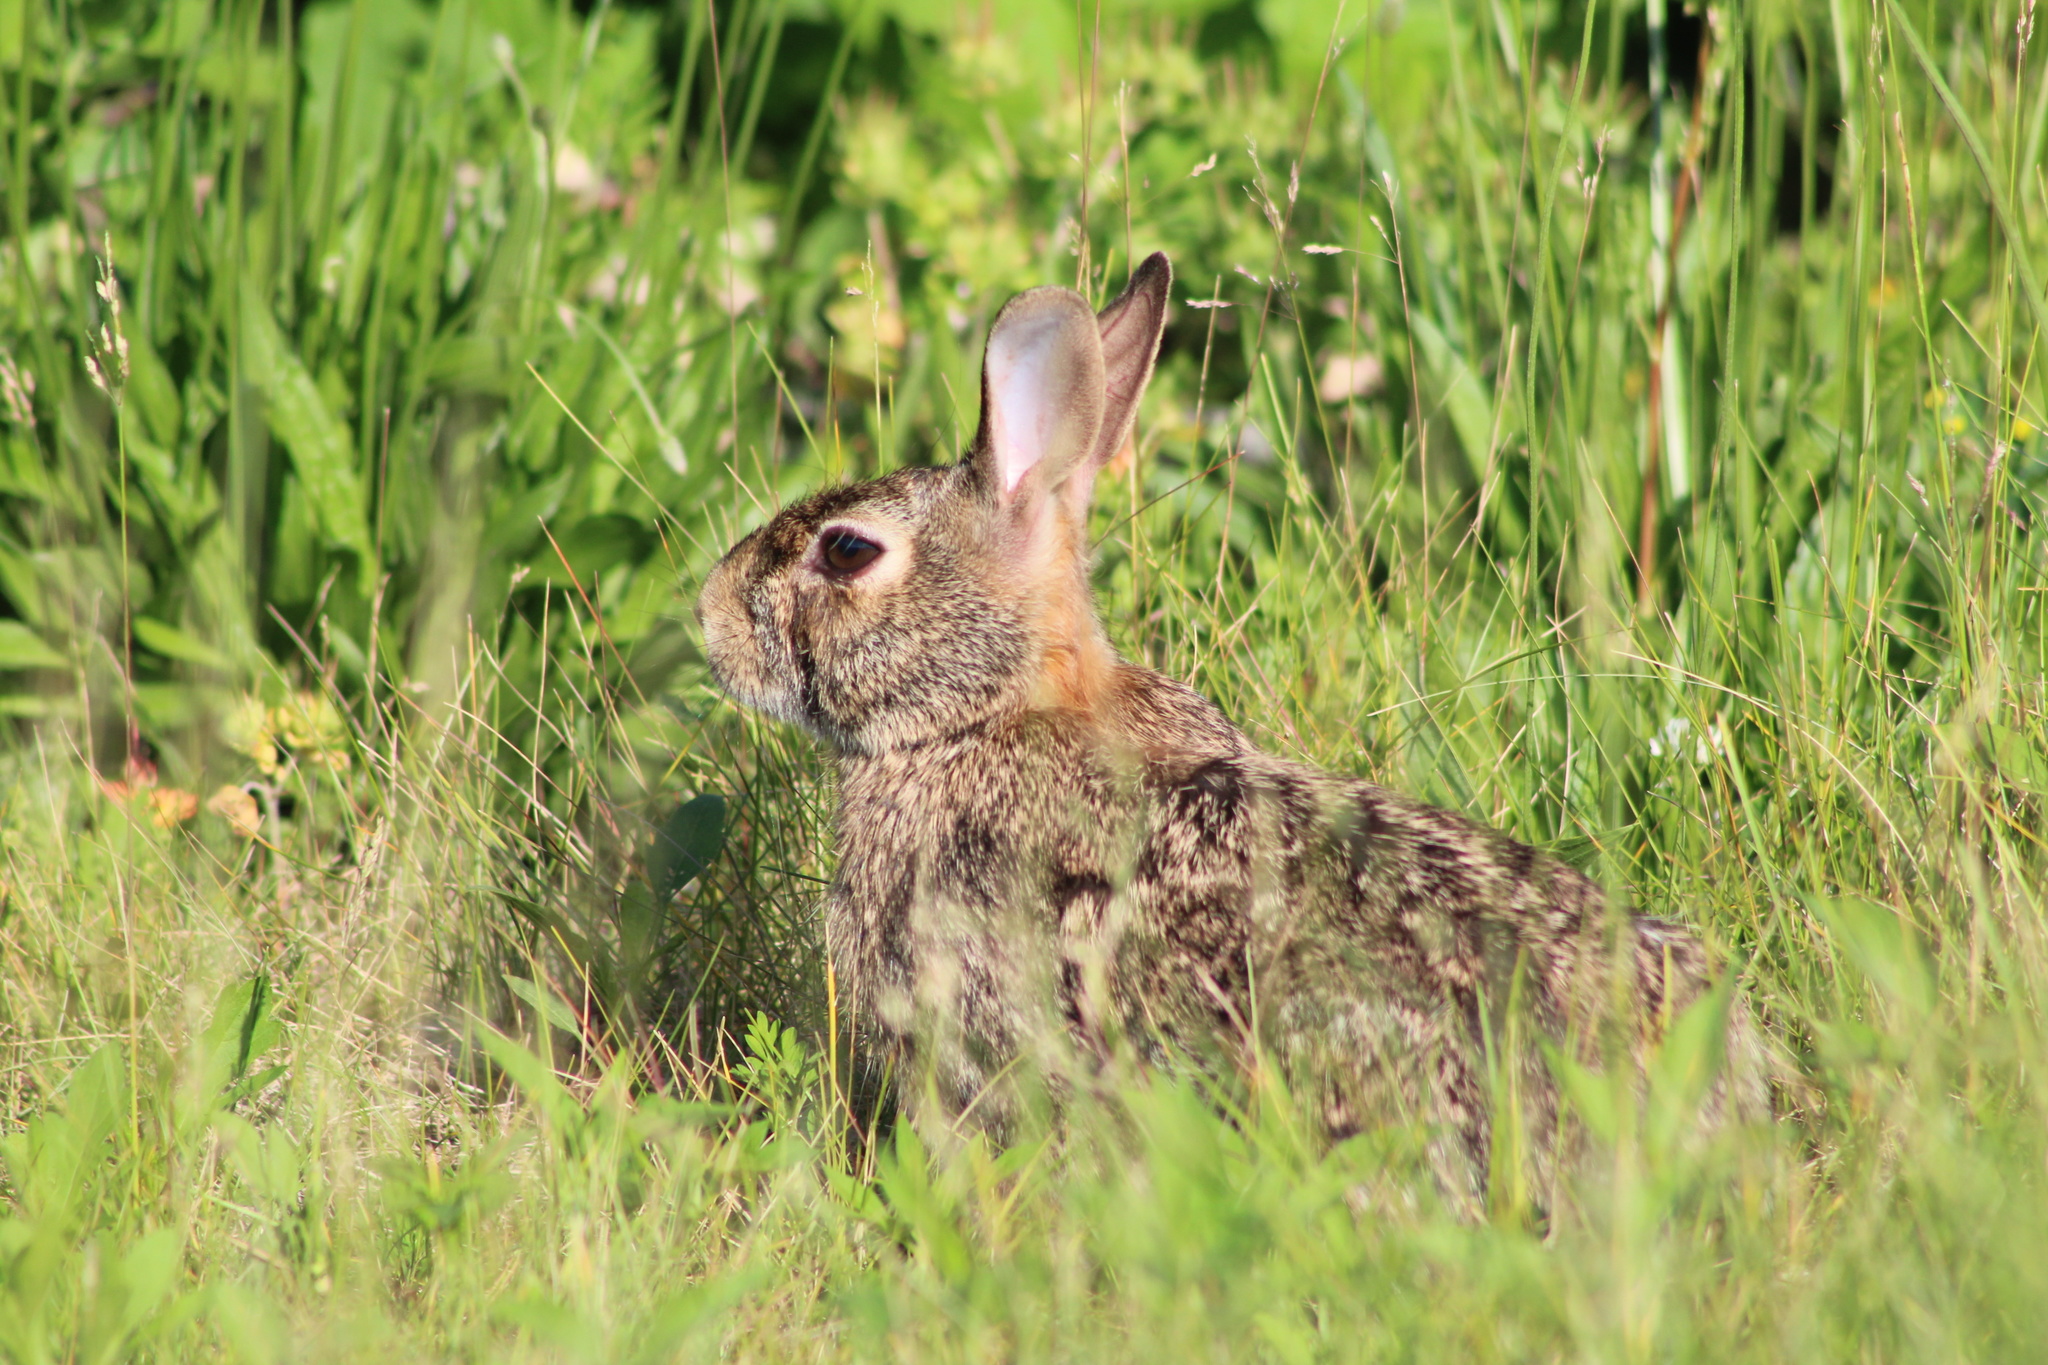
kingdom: Animalia
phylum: Chordata
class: Mammalia
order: Lagomorpha
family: Leporidae
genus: Sylvilagus
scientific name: Sylvilagus floridanus
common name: Eastern cottontail
